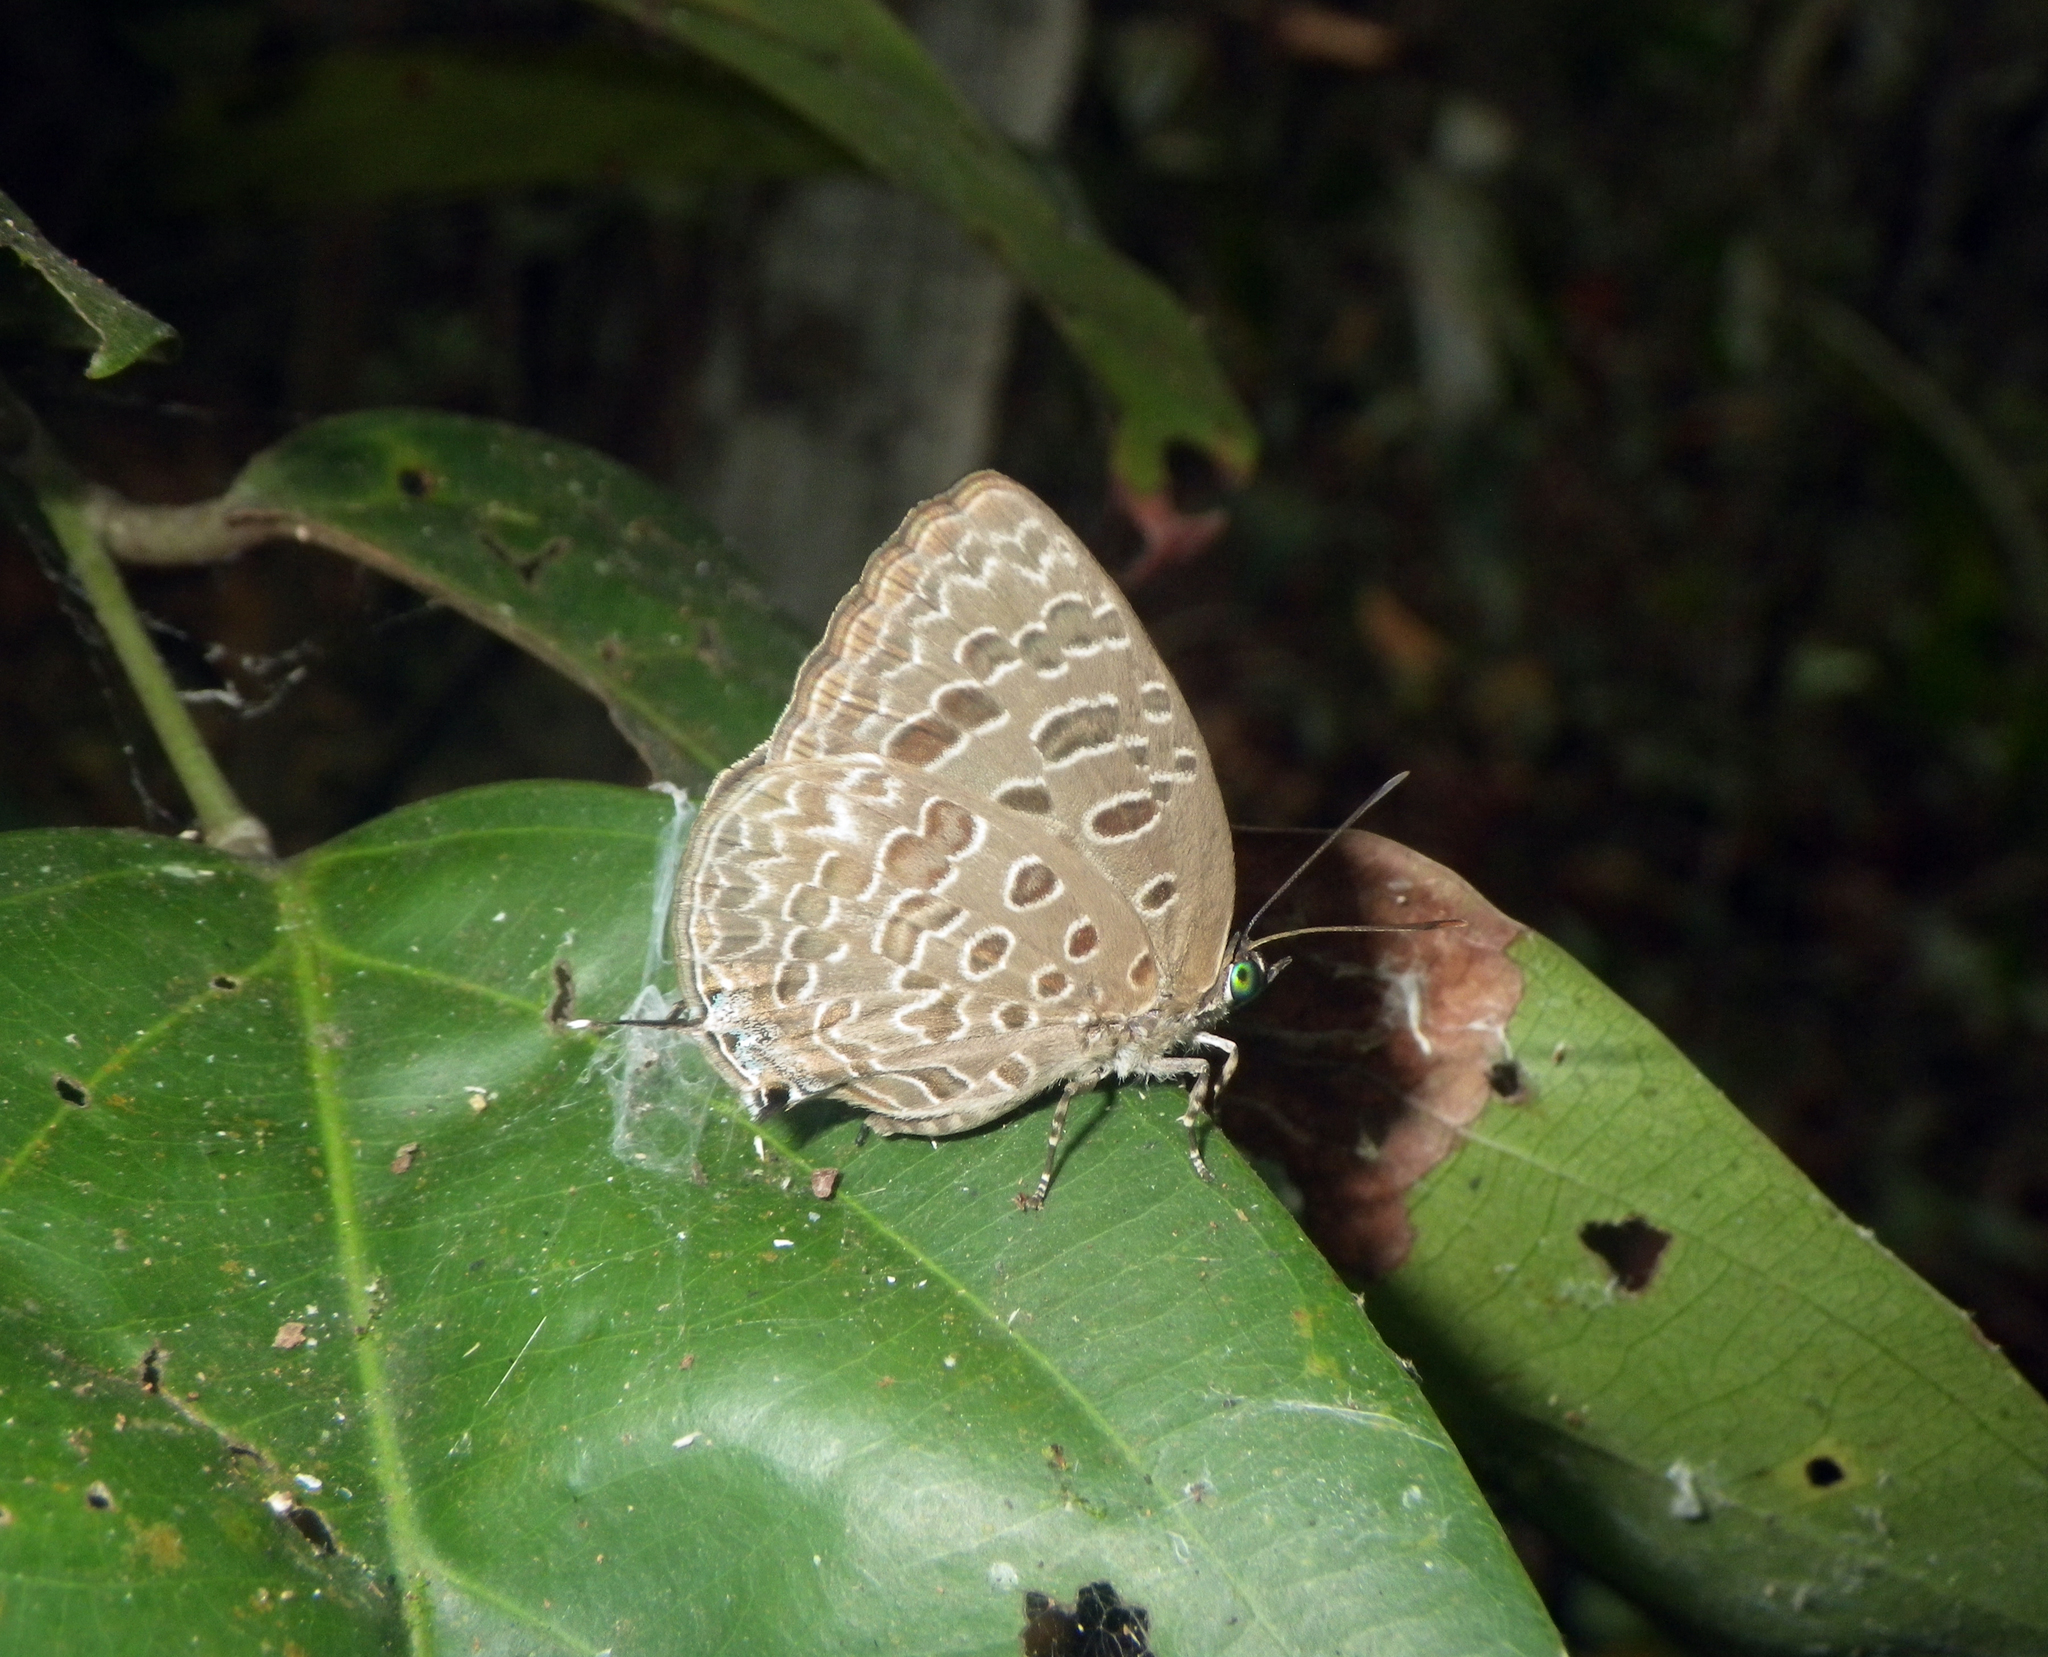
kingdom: Animalia
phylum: Arthropoda
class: Insecta
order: Lepidoptera
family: Lycaenidae
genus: Arhopala
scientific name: Arhopala alitaeus
